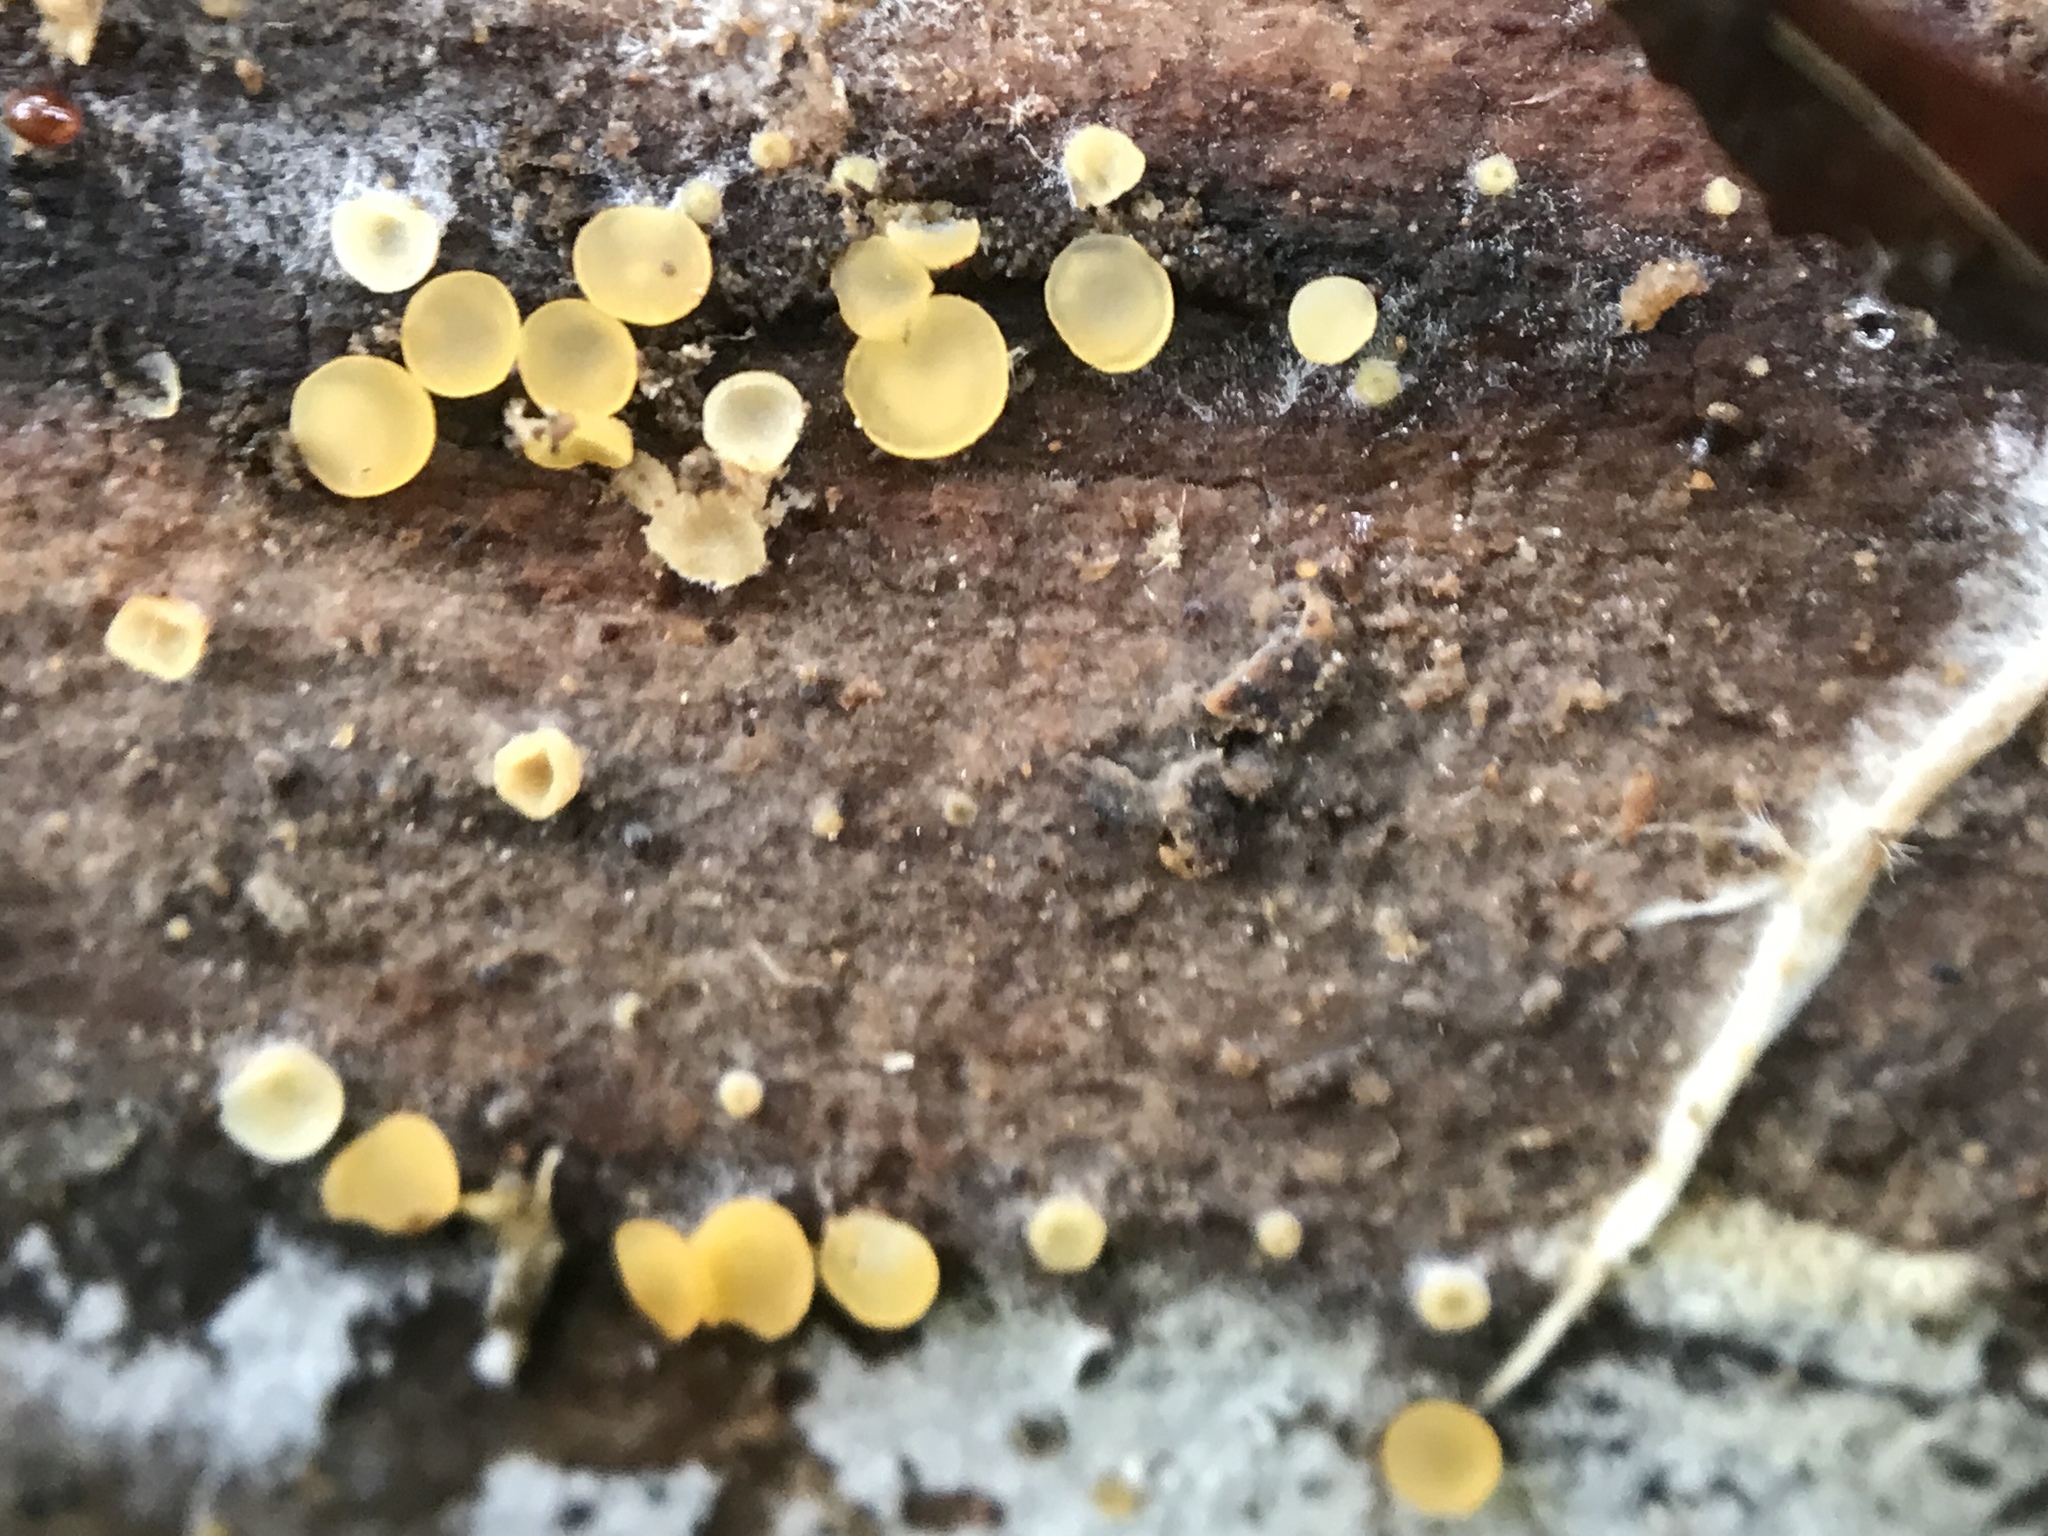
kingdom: Fungi
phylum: Ascomycota
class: Orbiliomycetes
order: Orbiliales
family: Orbiliaceae
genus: Orbilia
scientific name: Orbilia
